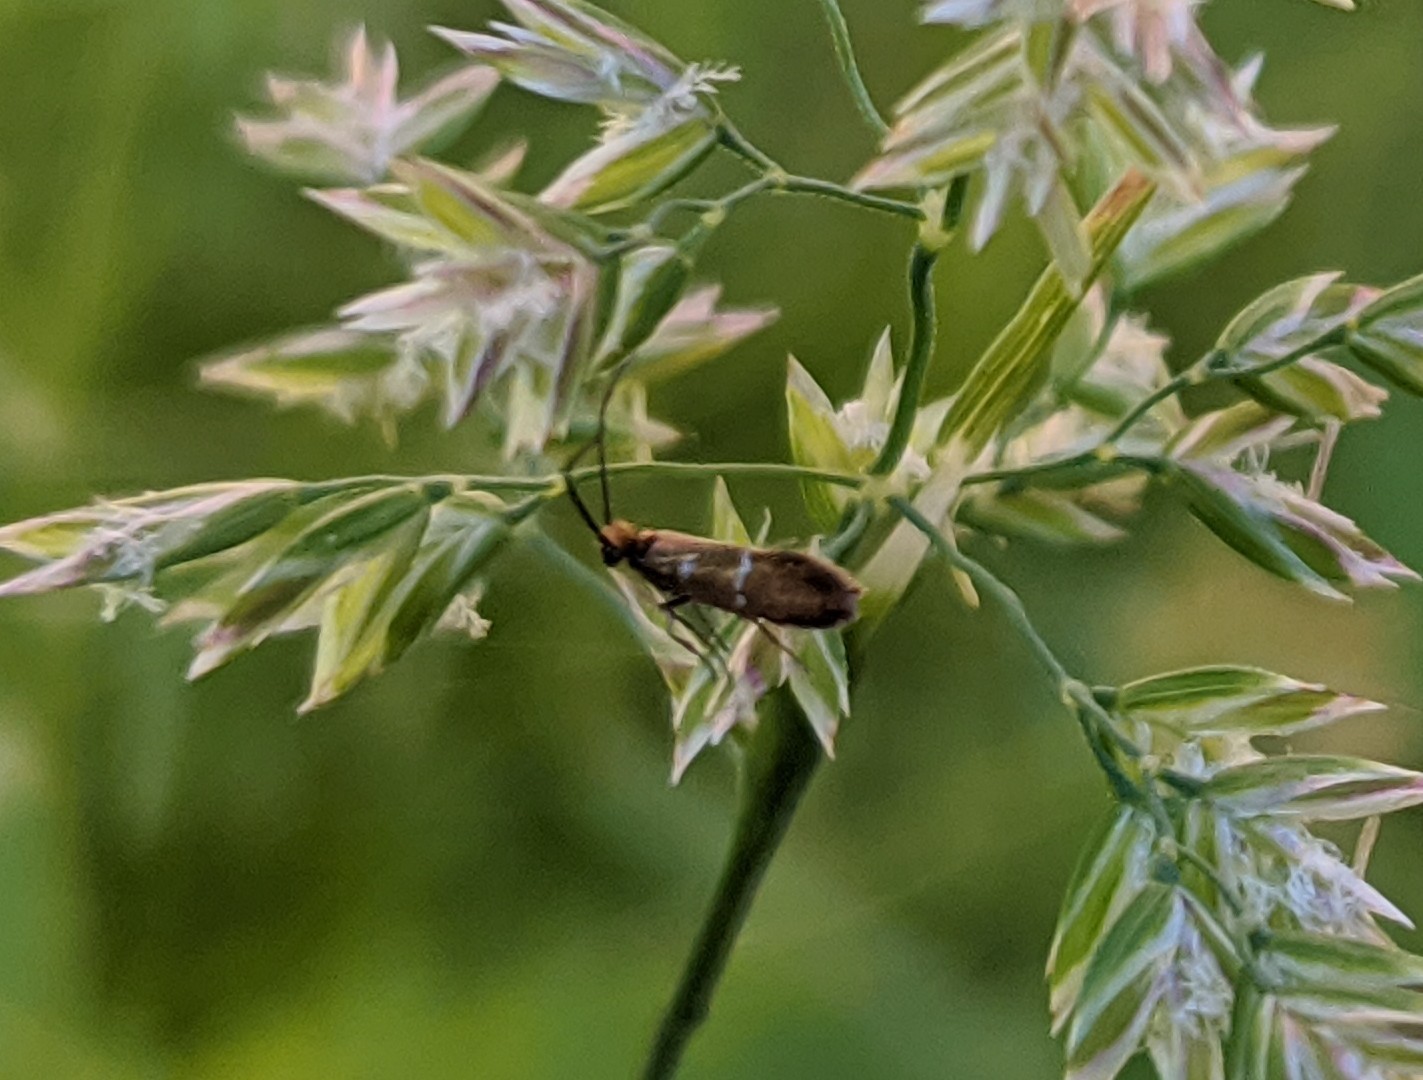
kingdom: Animalia
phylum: Arthropoda
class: Insecta
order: Lepidoptera
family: Micropterigidae
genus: Micropterix
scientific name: Micropterix aruncella
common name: White-barred gold
